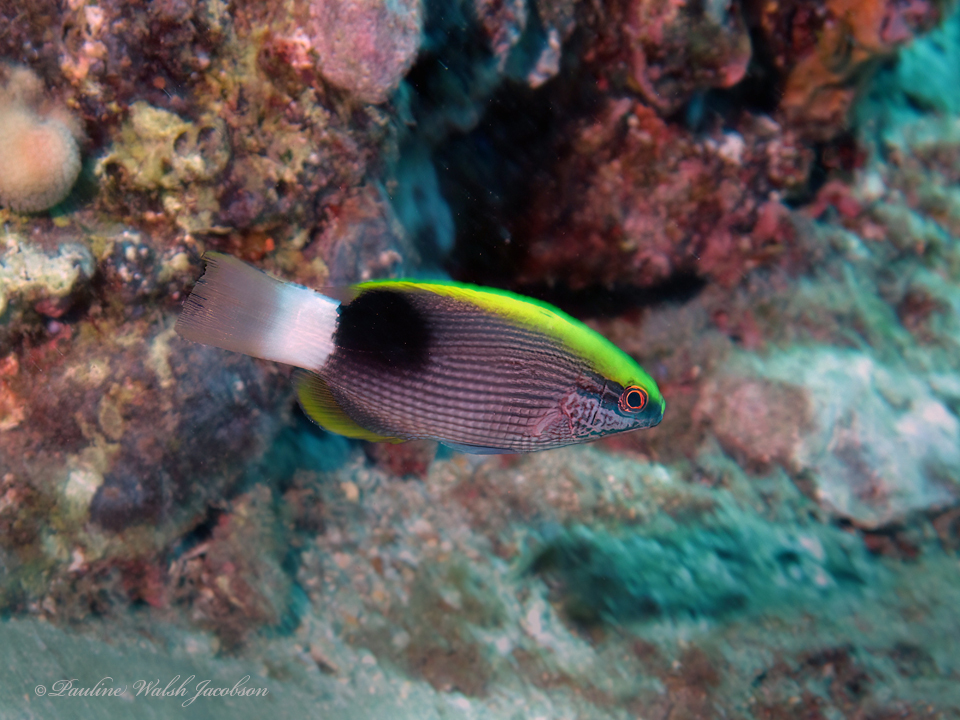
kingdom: Animalia
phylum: Chordata
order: Perciformes
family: Labridae
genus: Bodianus
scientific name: Bodianus albotaeniatus
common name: Hawaiian hogfish
